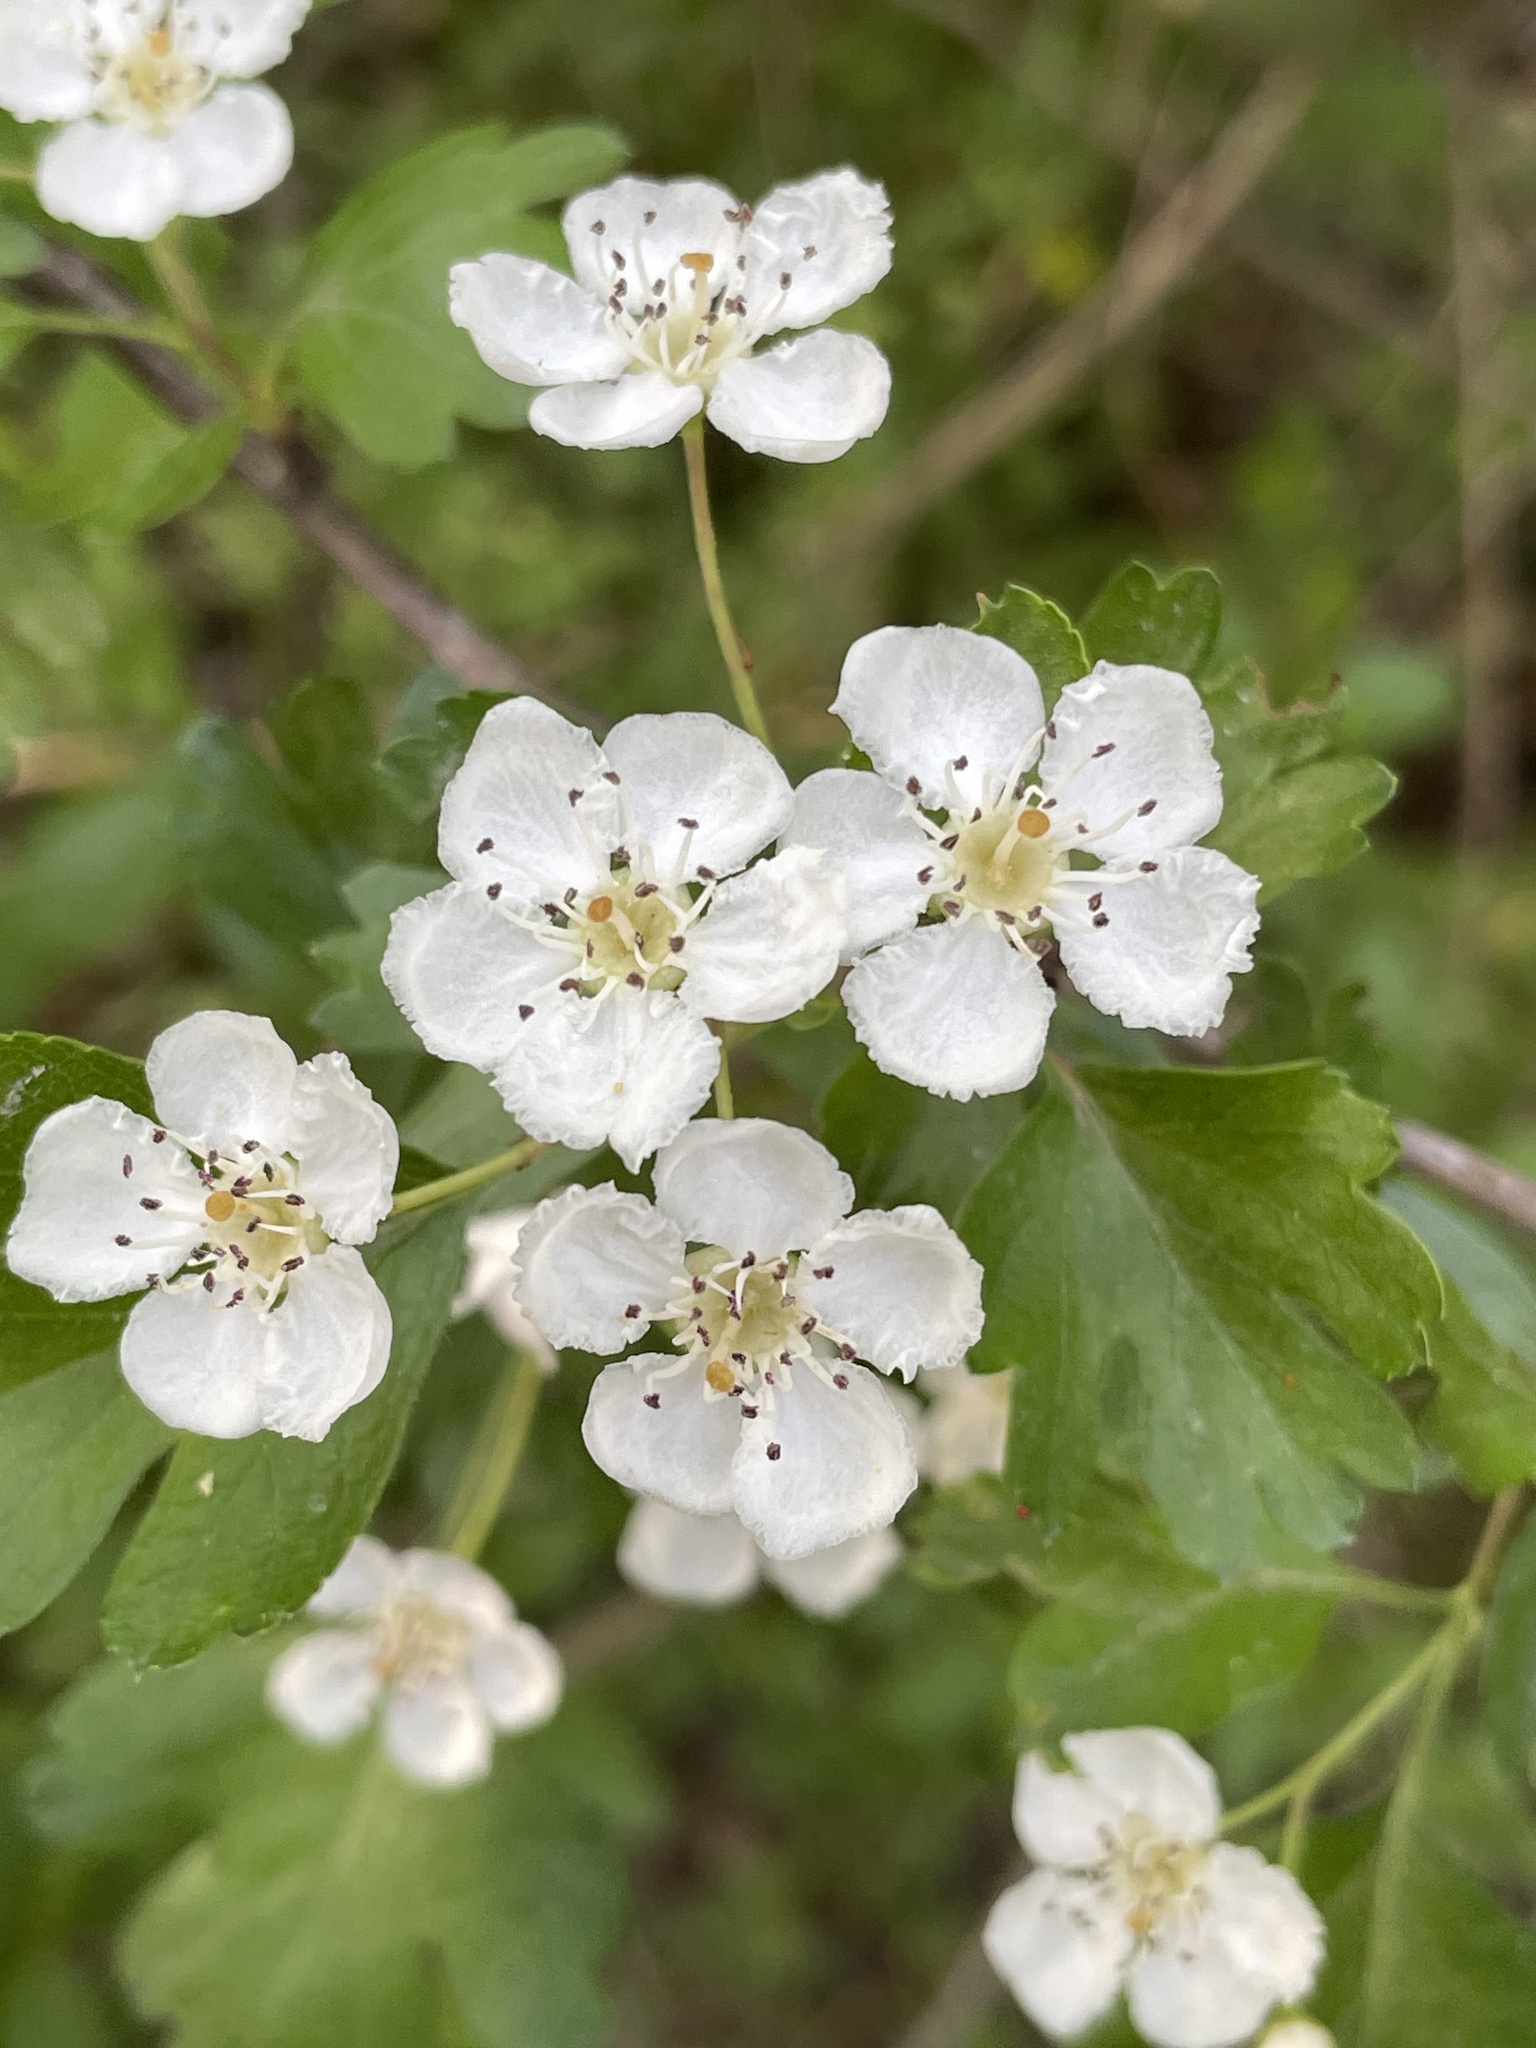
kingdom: Plantae
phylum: Tracheophyta
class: Magnoliopsida
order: Rosales
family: Rosaceae
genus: Crataegus
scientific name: Crataegus monogyna
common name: Hawthorn
